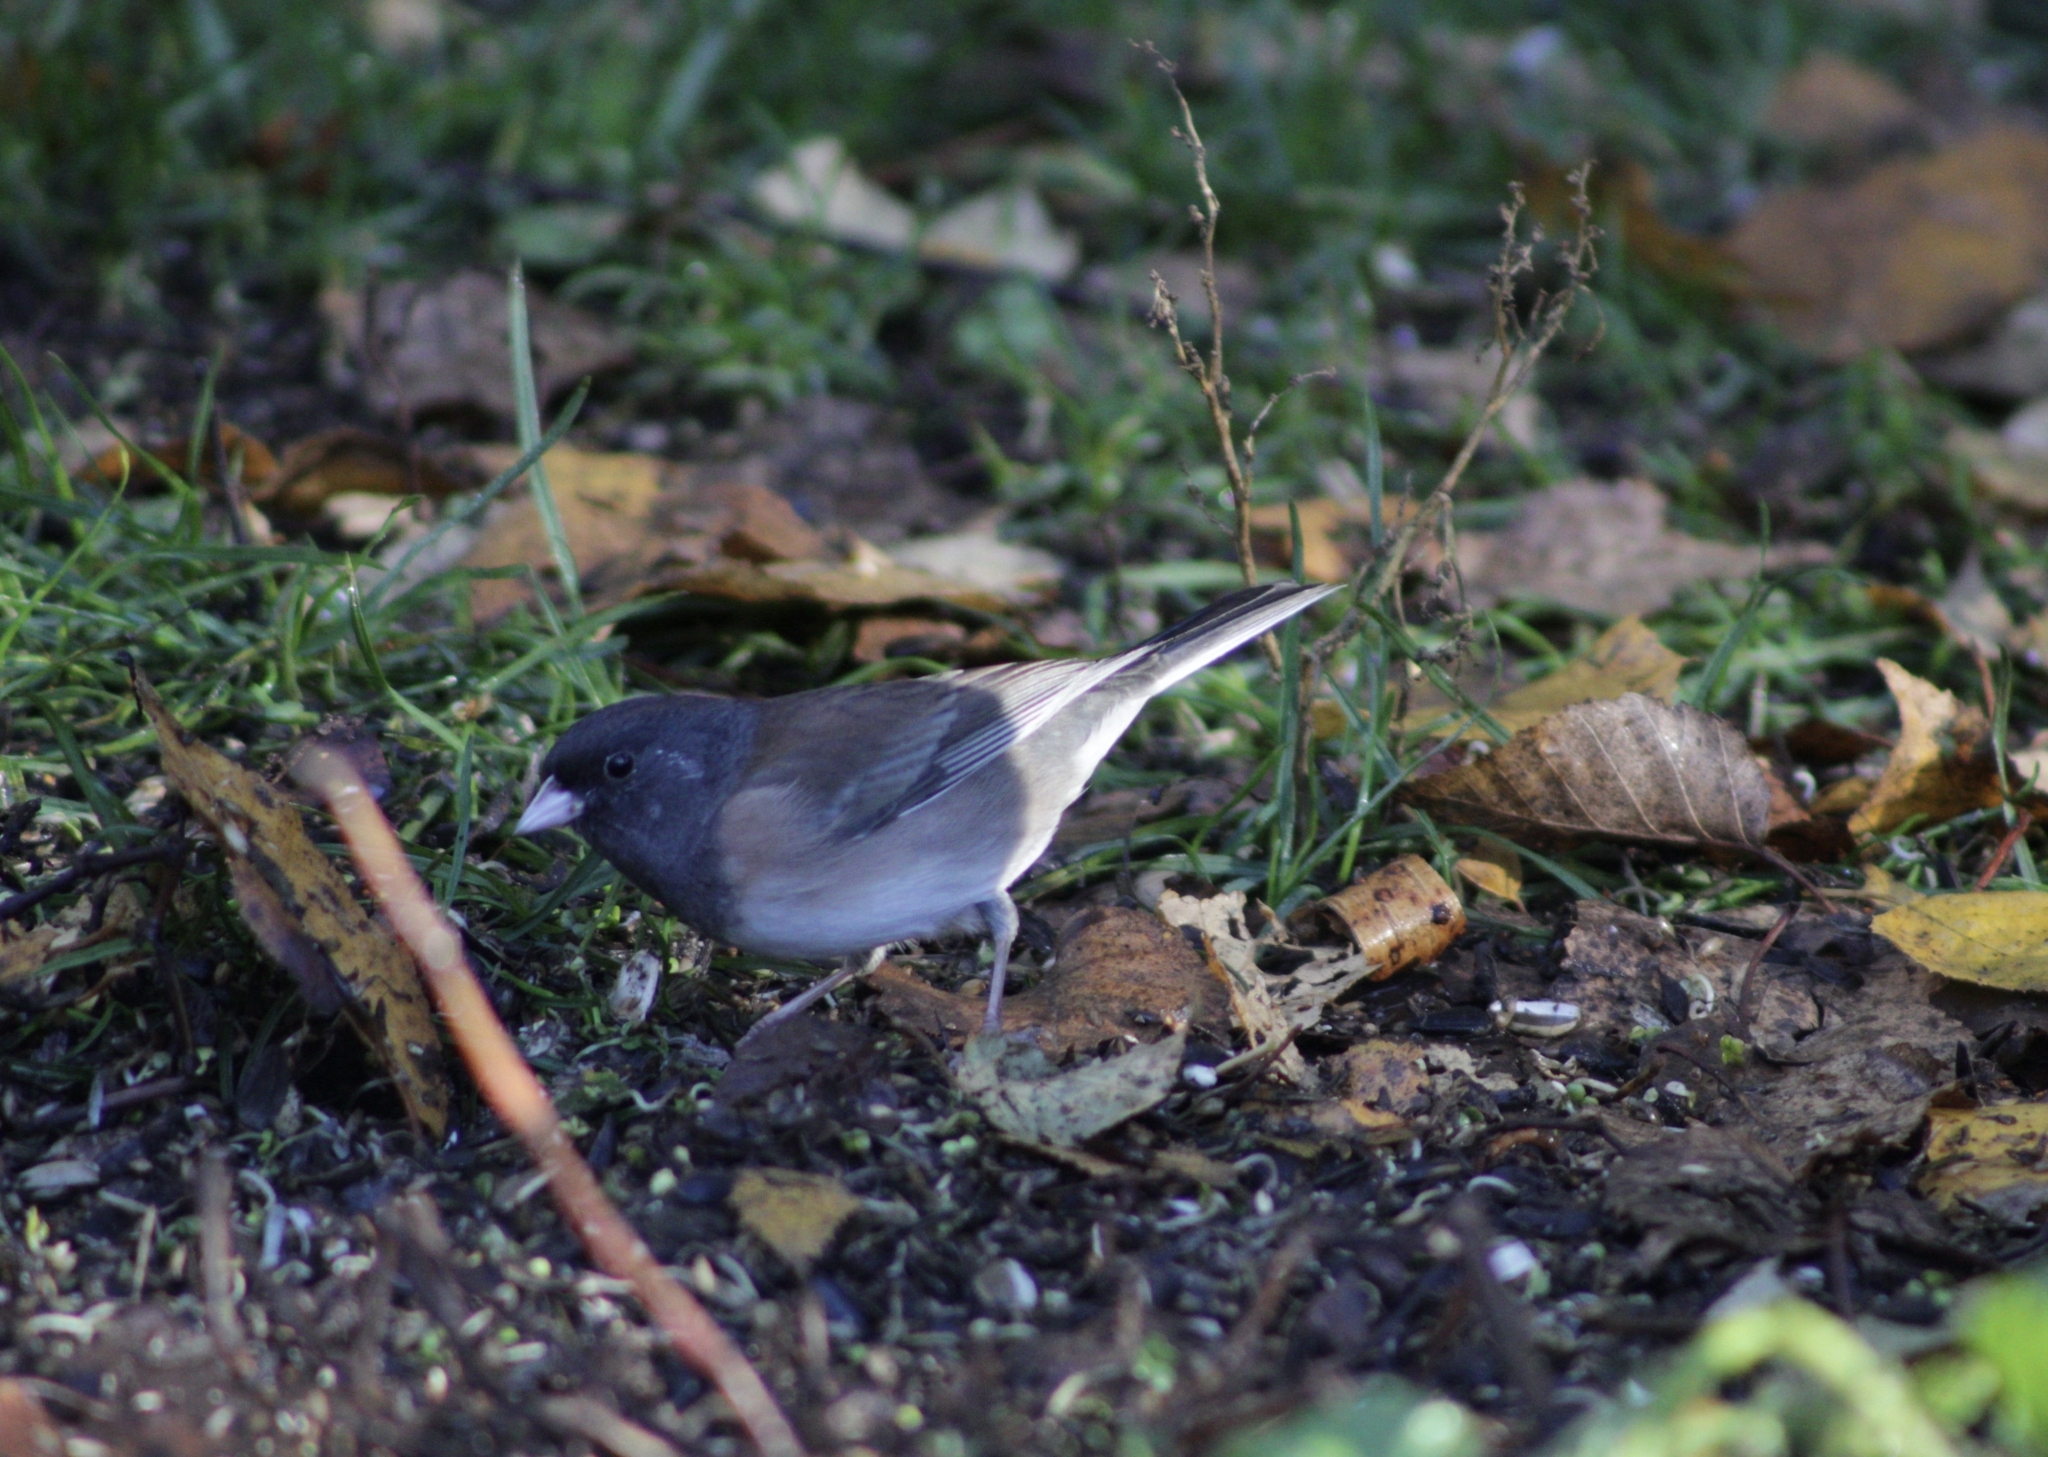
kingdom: Animalia
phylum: Chordata
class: Aves
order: Passeriformes
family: Passerellidae
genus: Junco
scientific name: Junco hyemalis
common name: Dark-eyed junco
